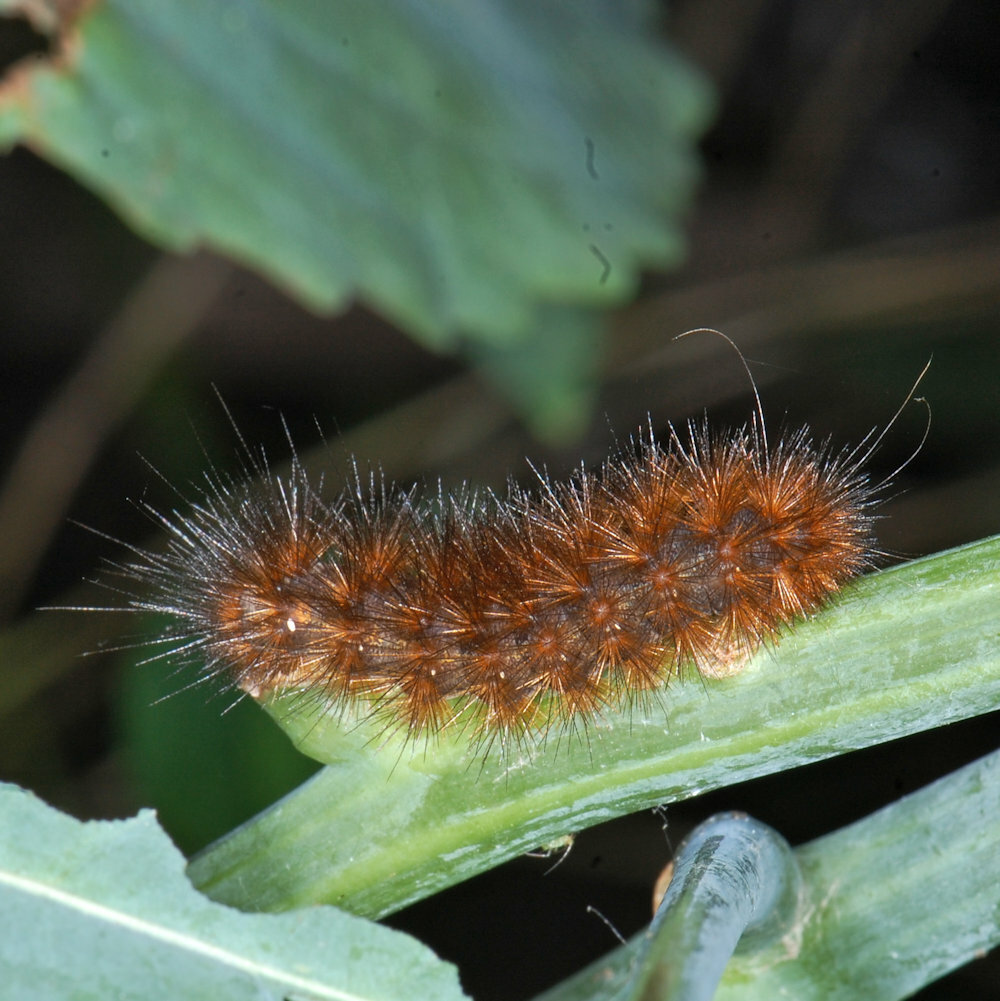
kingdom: Animalia
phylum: Arthropoda
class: Insecta
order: Lepidoptera
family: Erebidae
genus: Spilosoma
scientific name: Spilosoma virginica
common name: Virginia tiger moth
